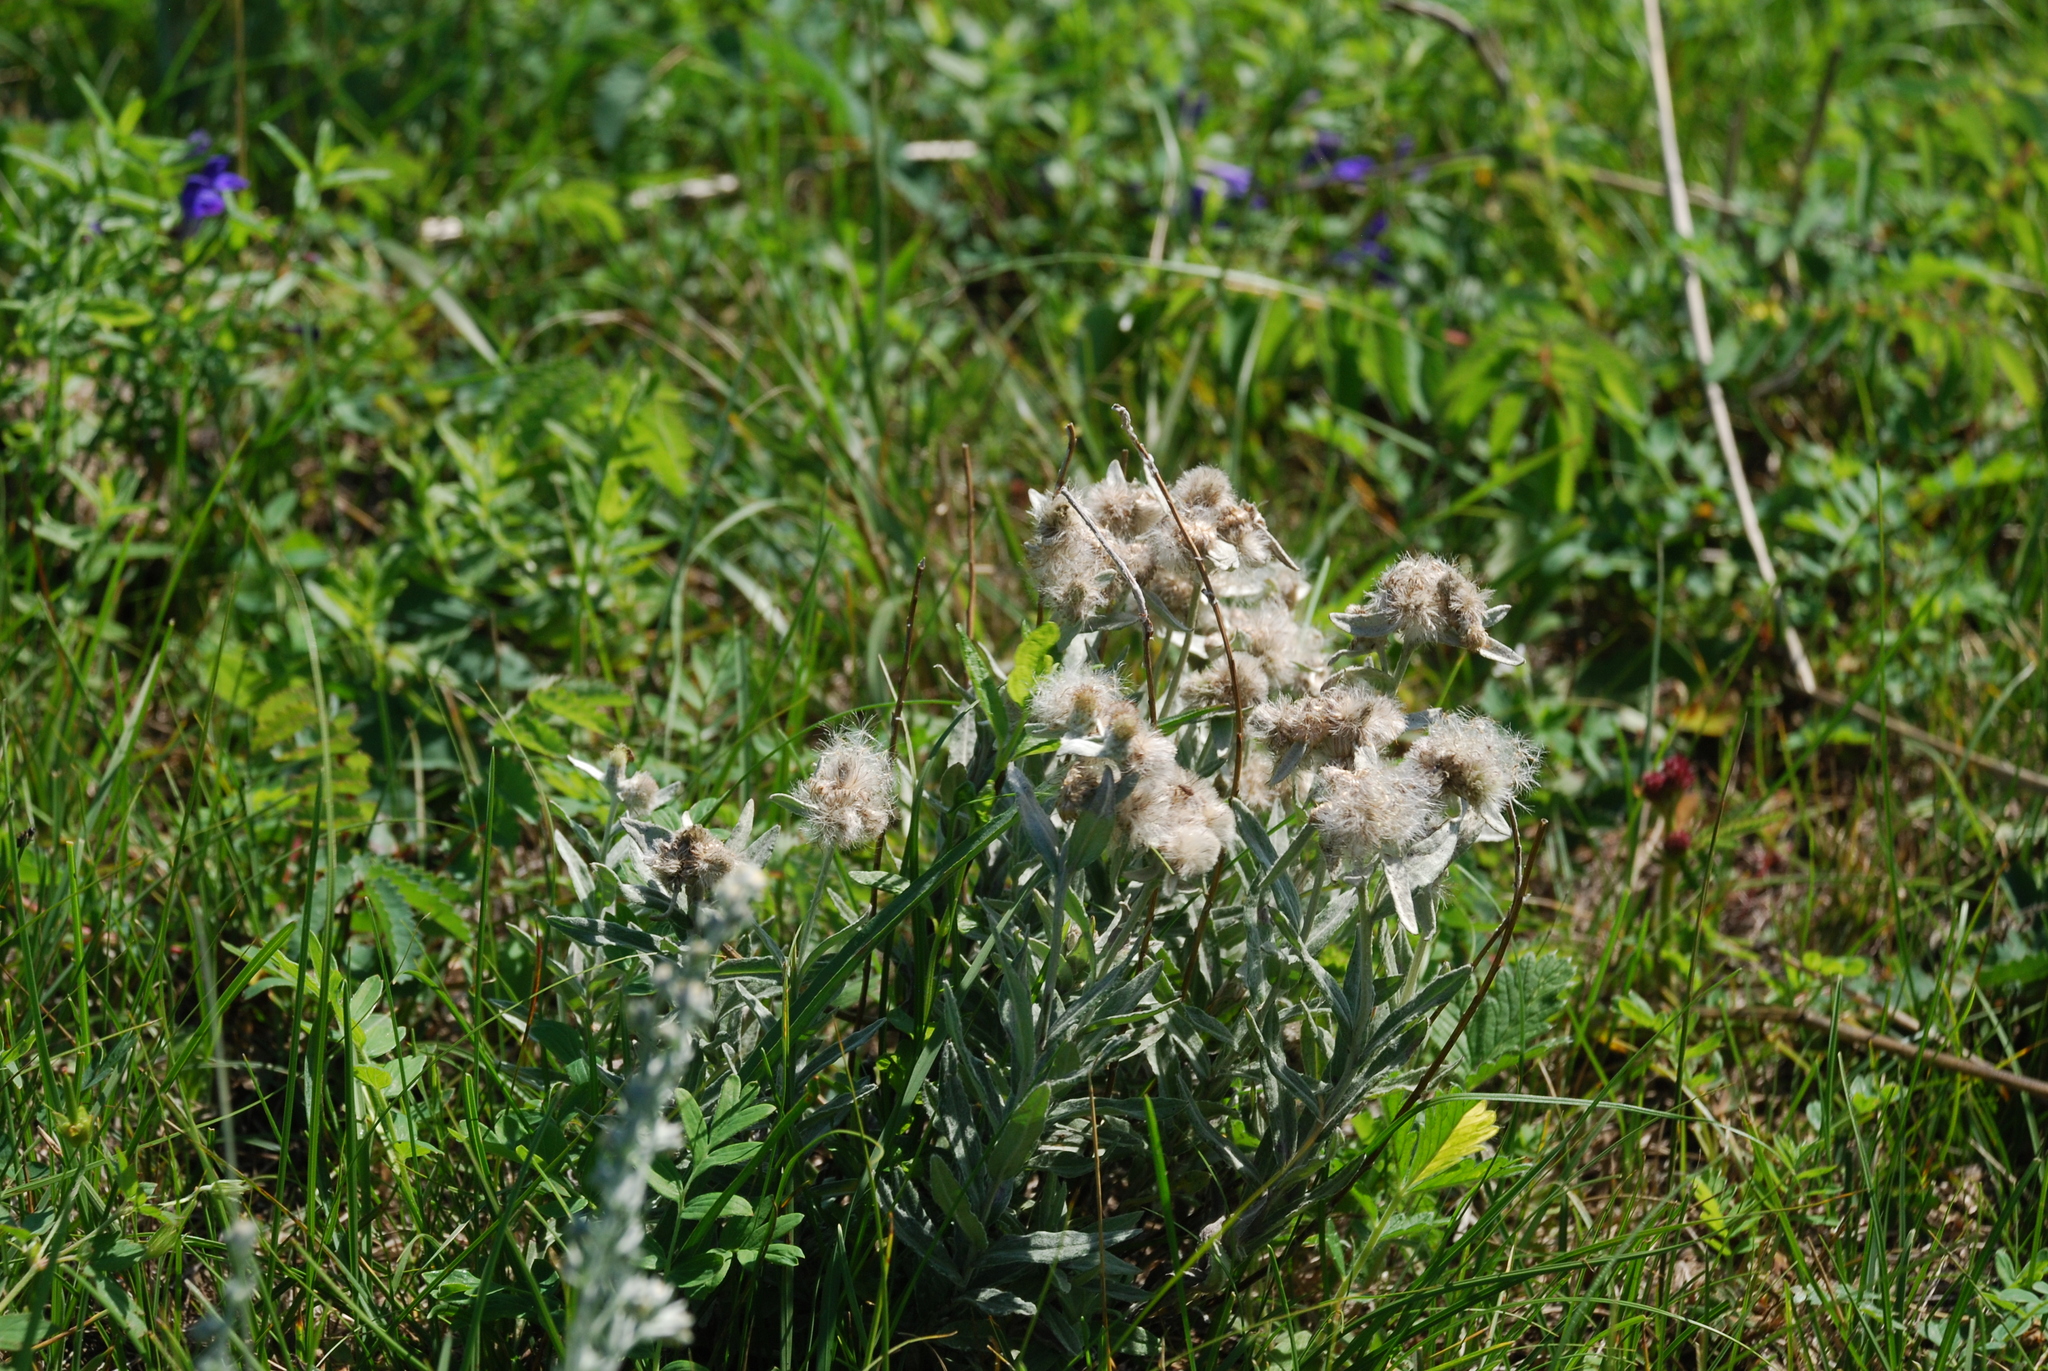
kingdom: Plantae
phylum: Tracheophyta
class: Magnoliopsida
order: Asterales
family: Asteraceae
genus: Leontopodium
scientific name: Leontopodium leontopodioides
